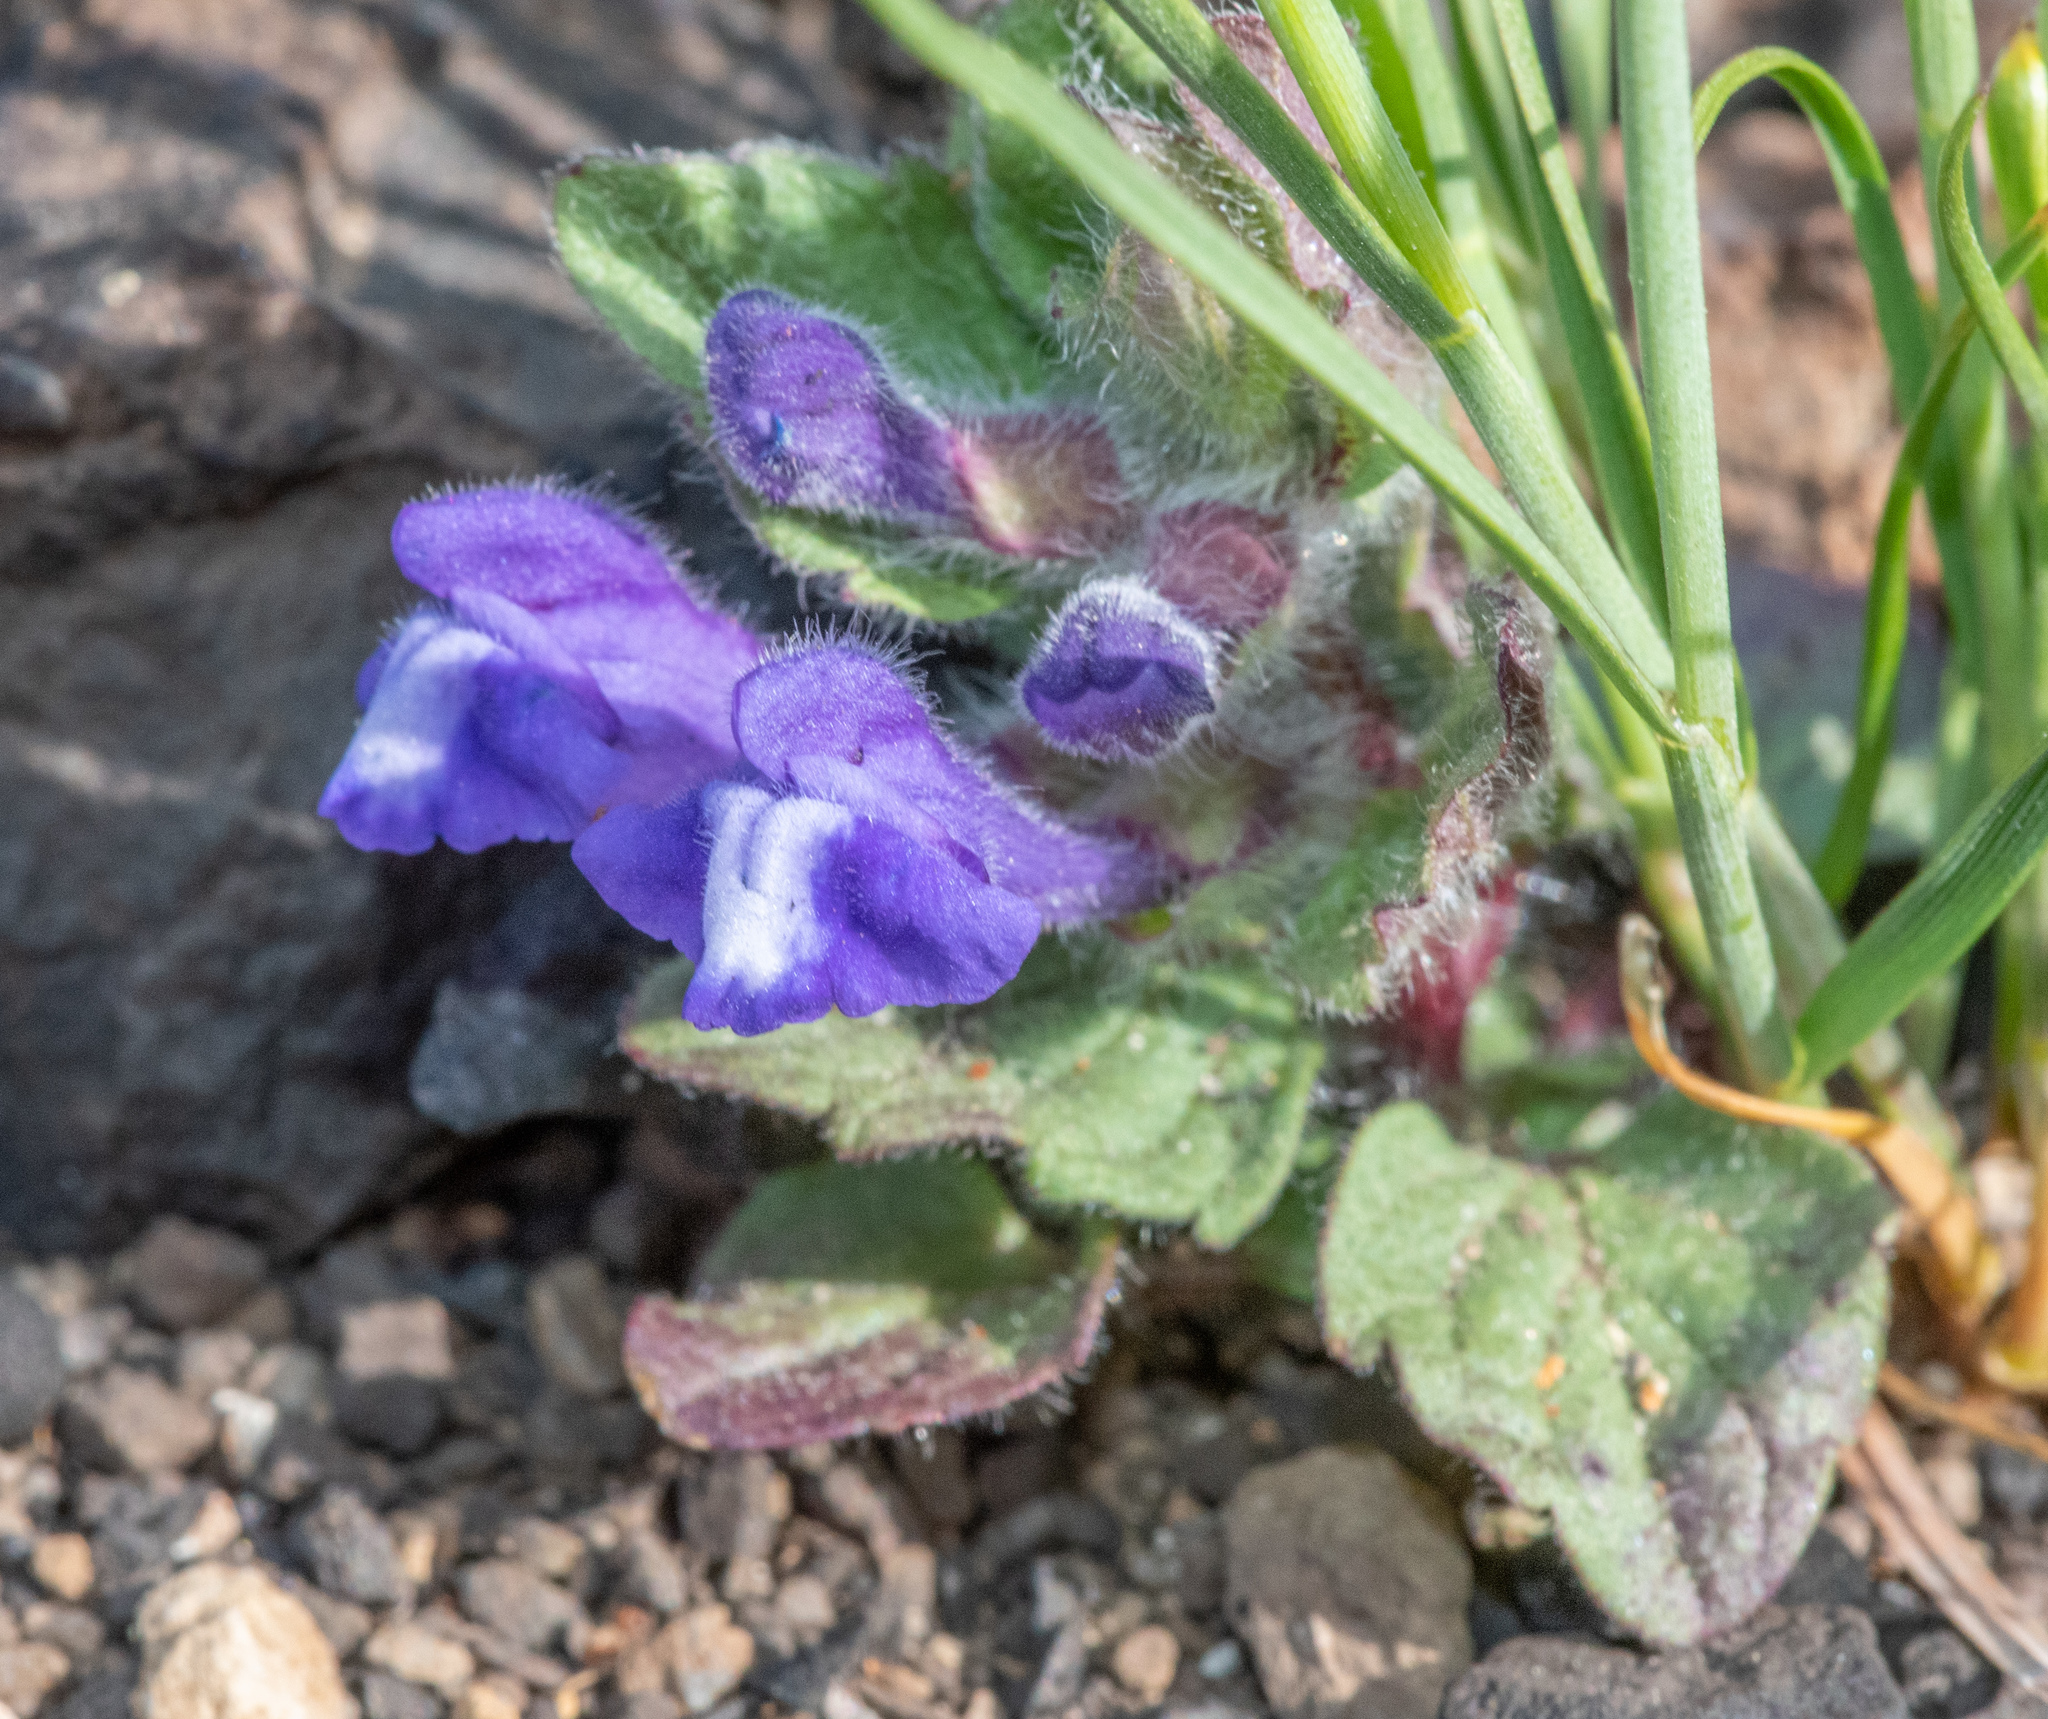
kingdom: Plantae
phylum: Tracheophyta
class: Magnoliopsida
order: Lamiales
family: Lamiaceae
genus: Scutellaria
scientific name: Scutellaria tuberosa
